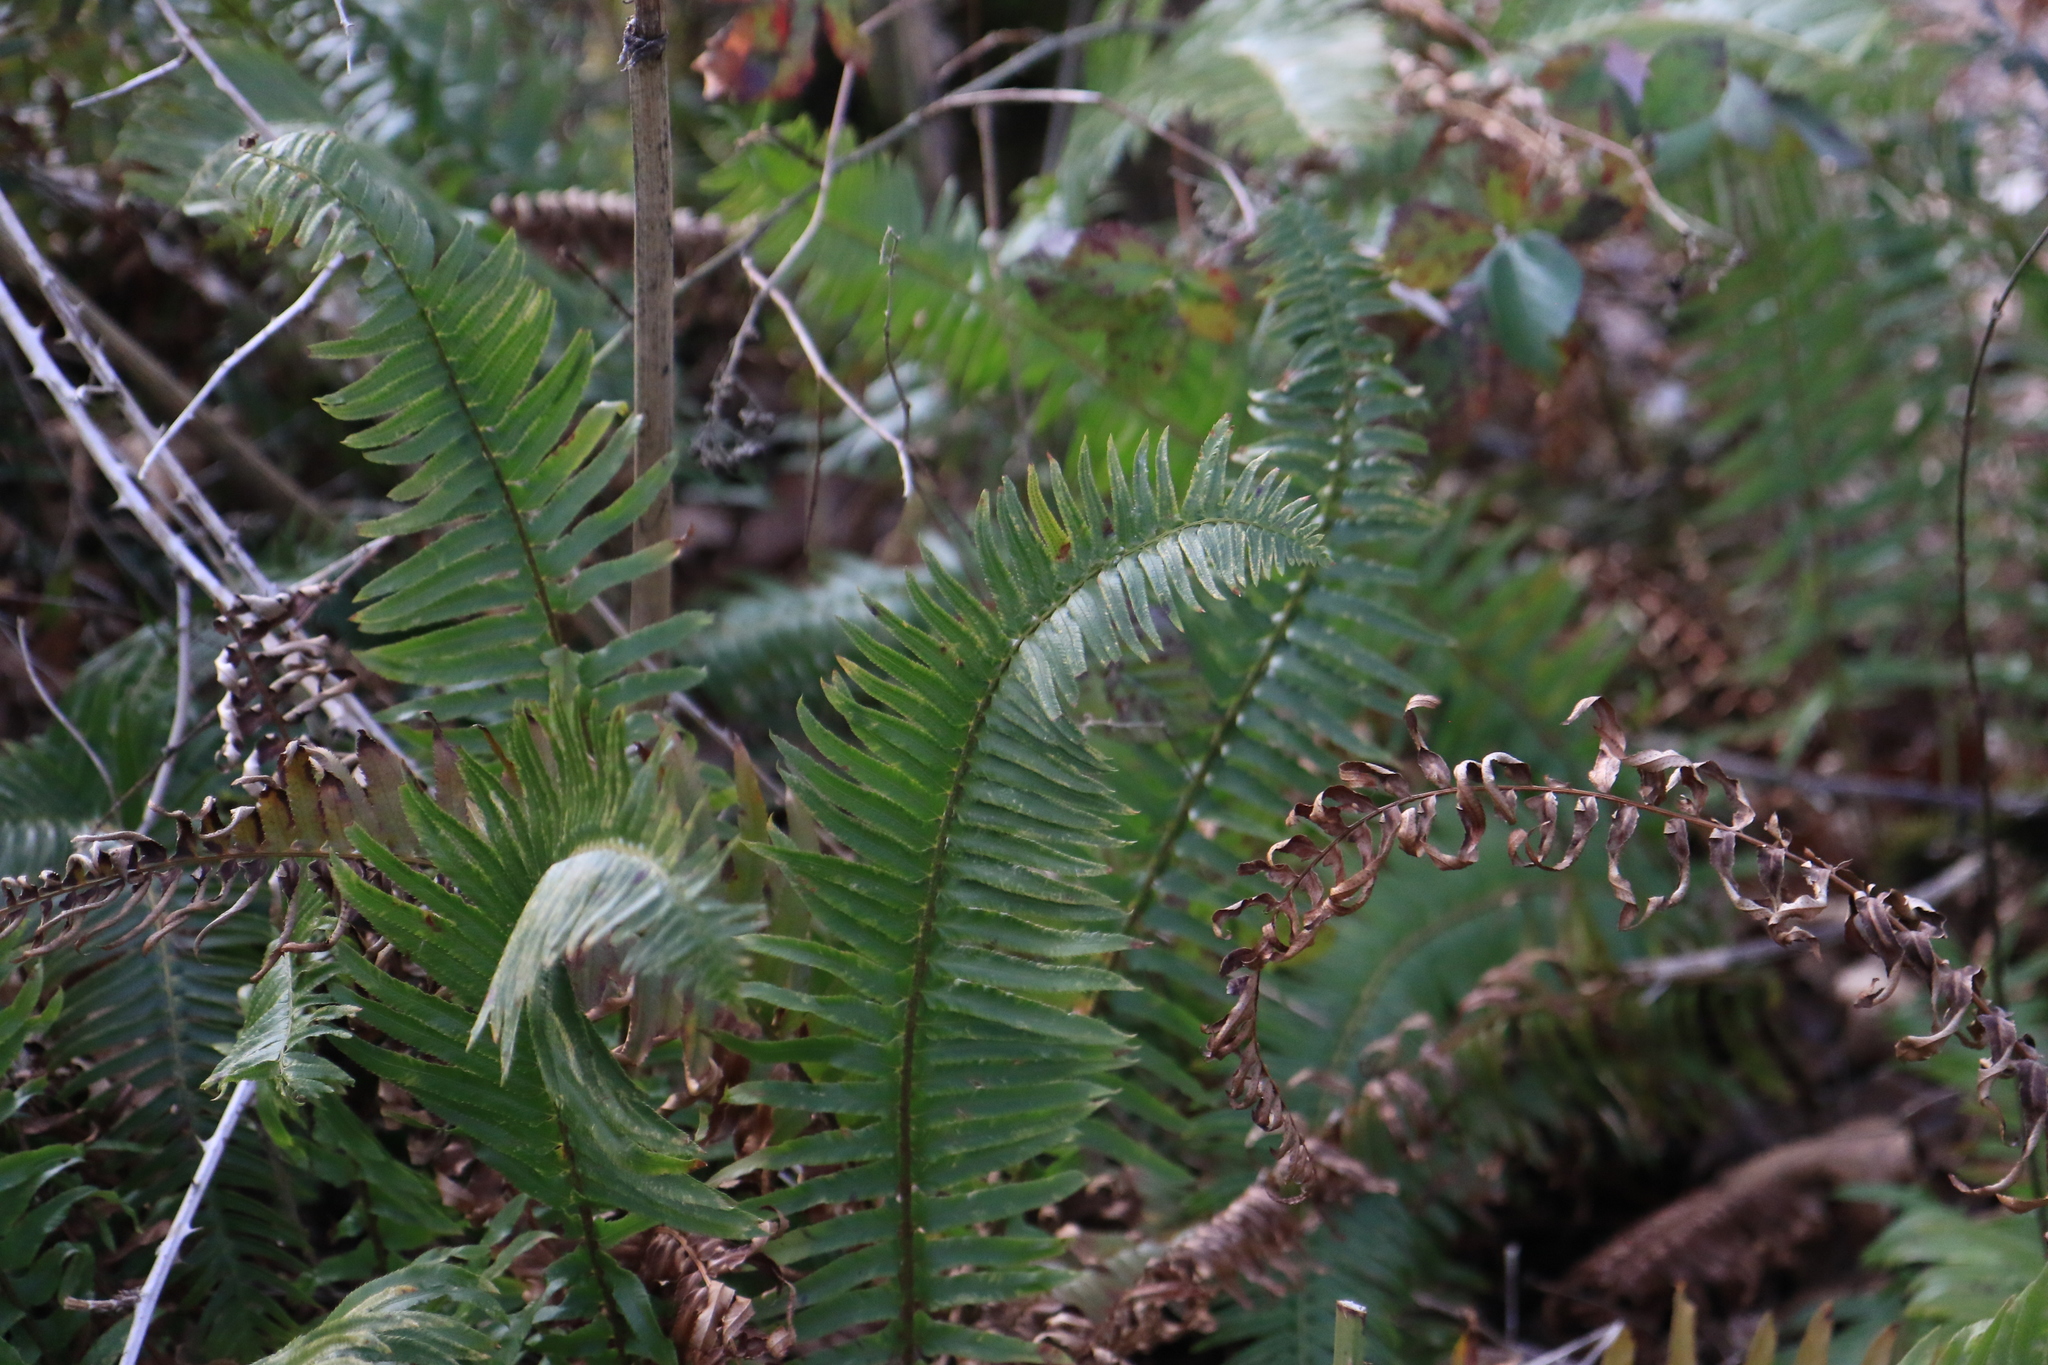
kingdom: Plantae
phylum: Tracheophyta
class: Polypodiopsida
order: Polypodiales
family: Dryopteridaceae
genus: Polystichum
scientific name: Polystichum munitum
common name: Western sword-fern
